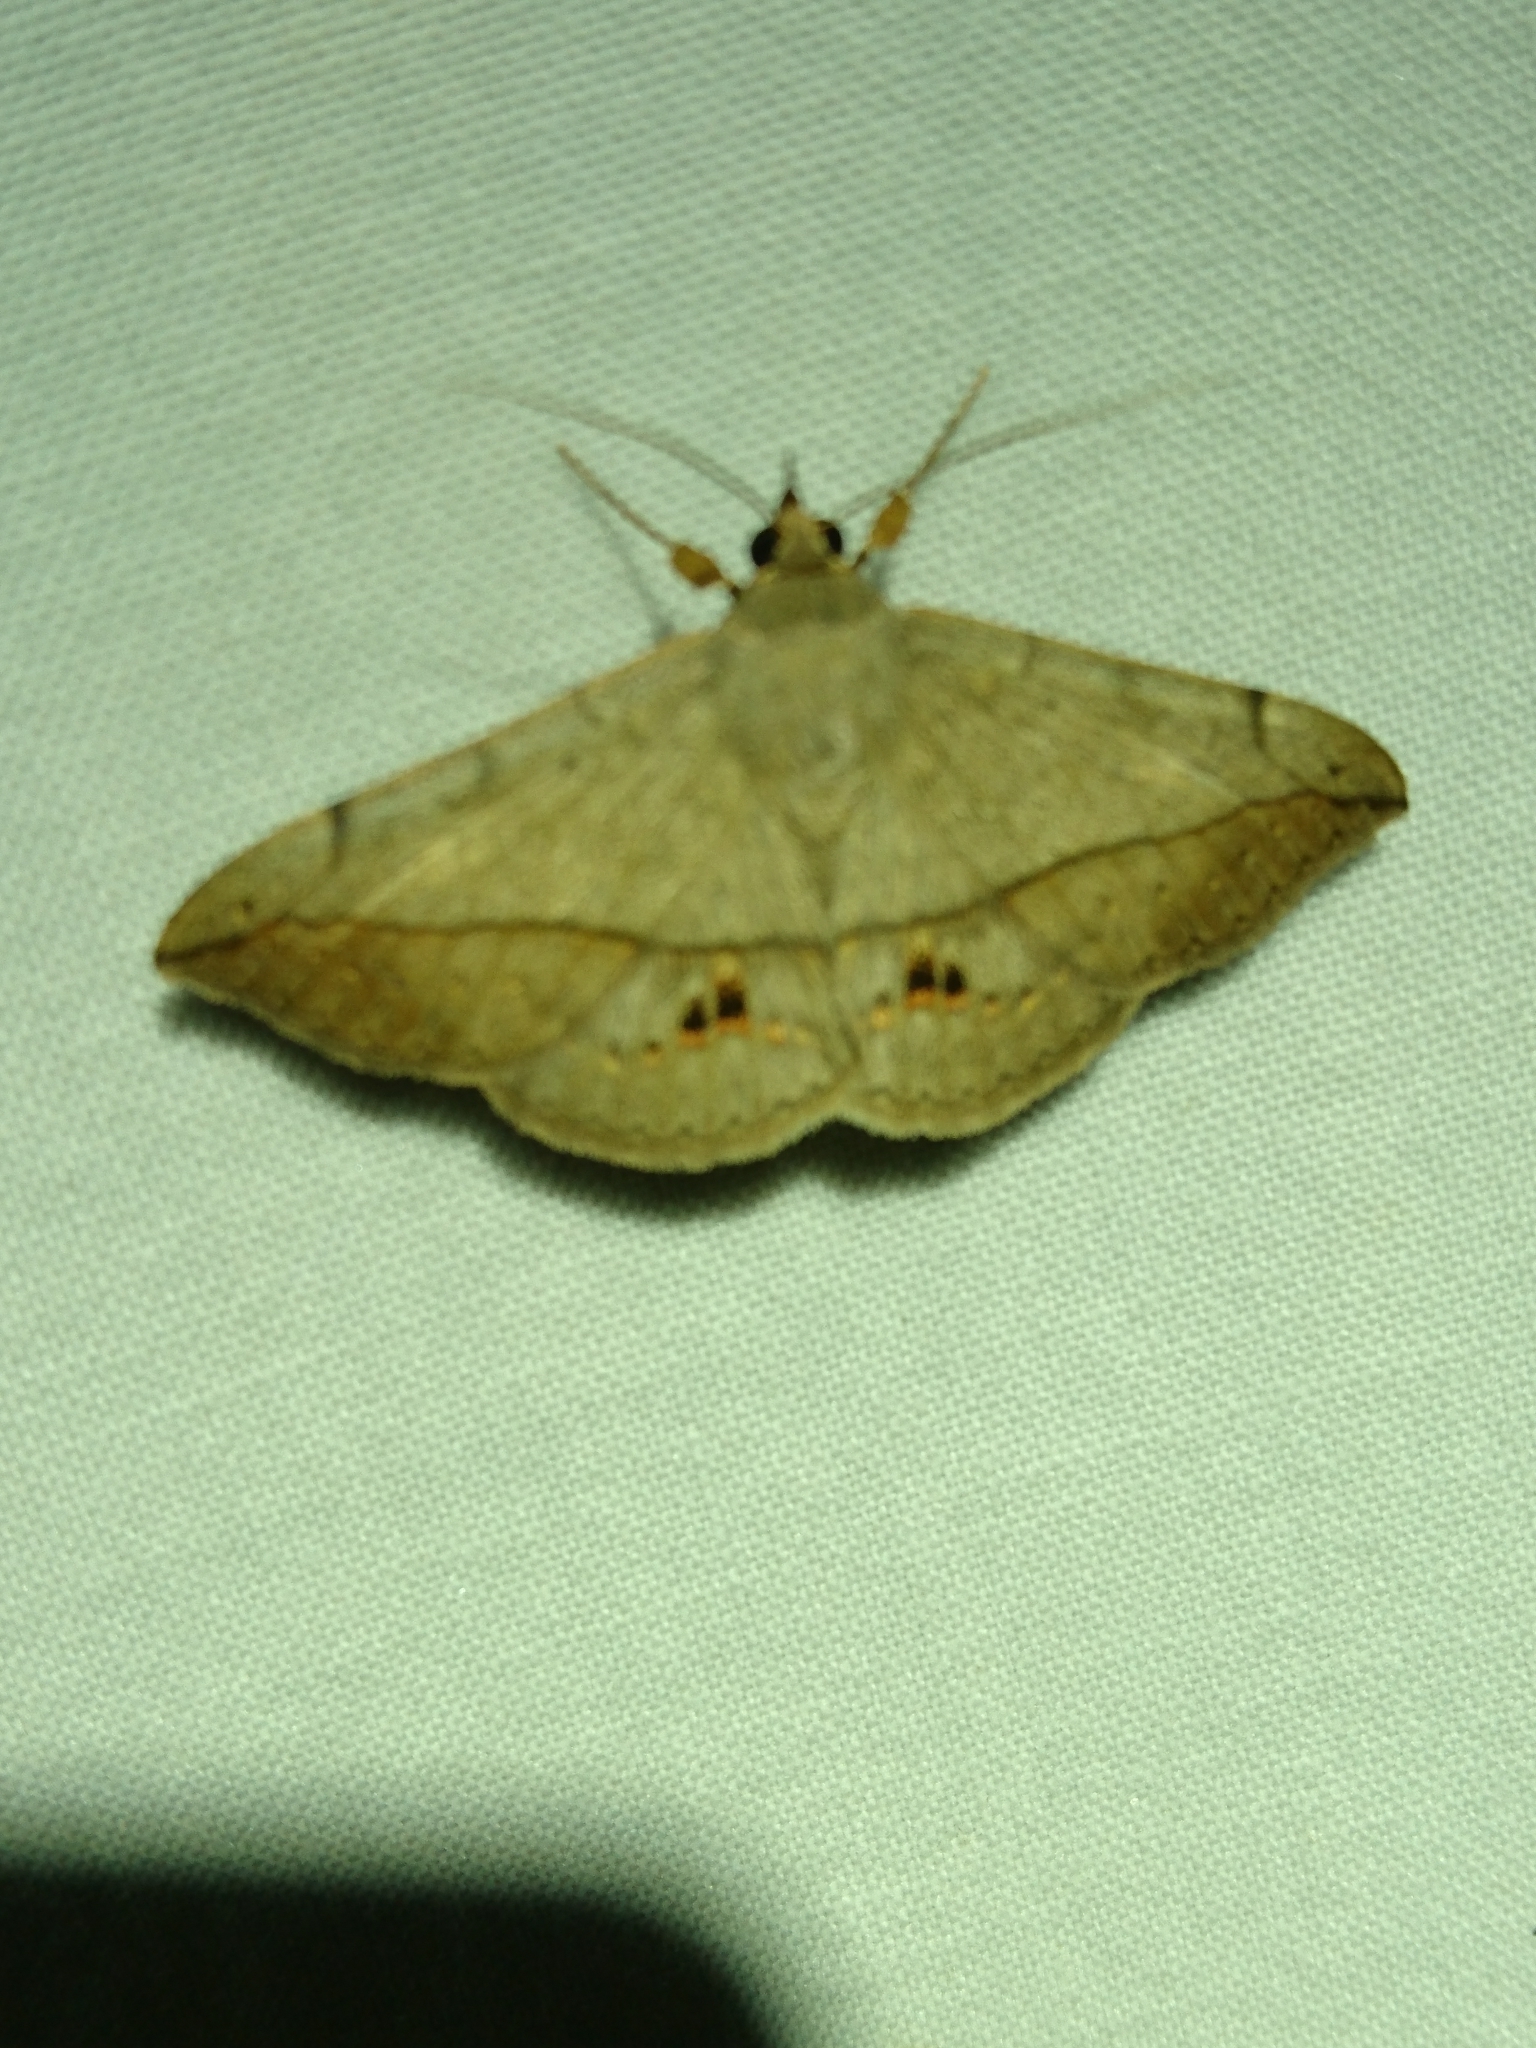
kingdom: Animalia
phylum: Arthropoda
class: Insecta
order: Lepidoptera
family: Erebidae
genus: Anticarsia
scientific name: Anticarsia gemmatalis
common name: Cutworm moth
